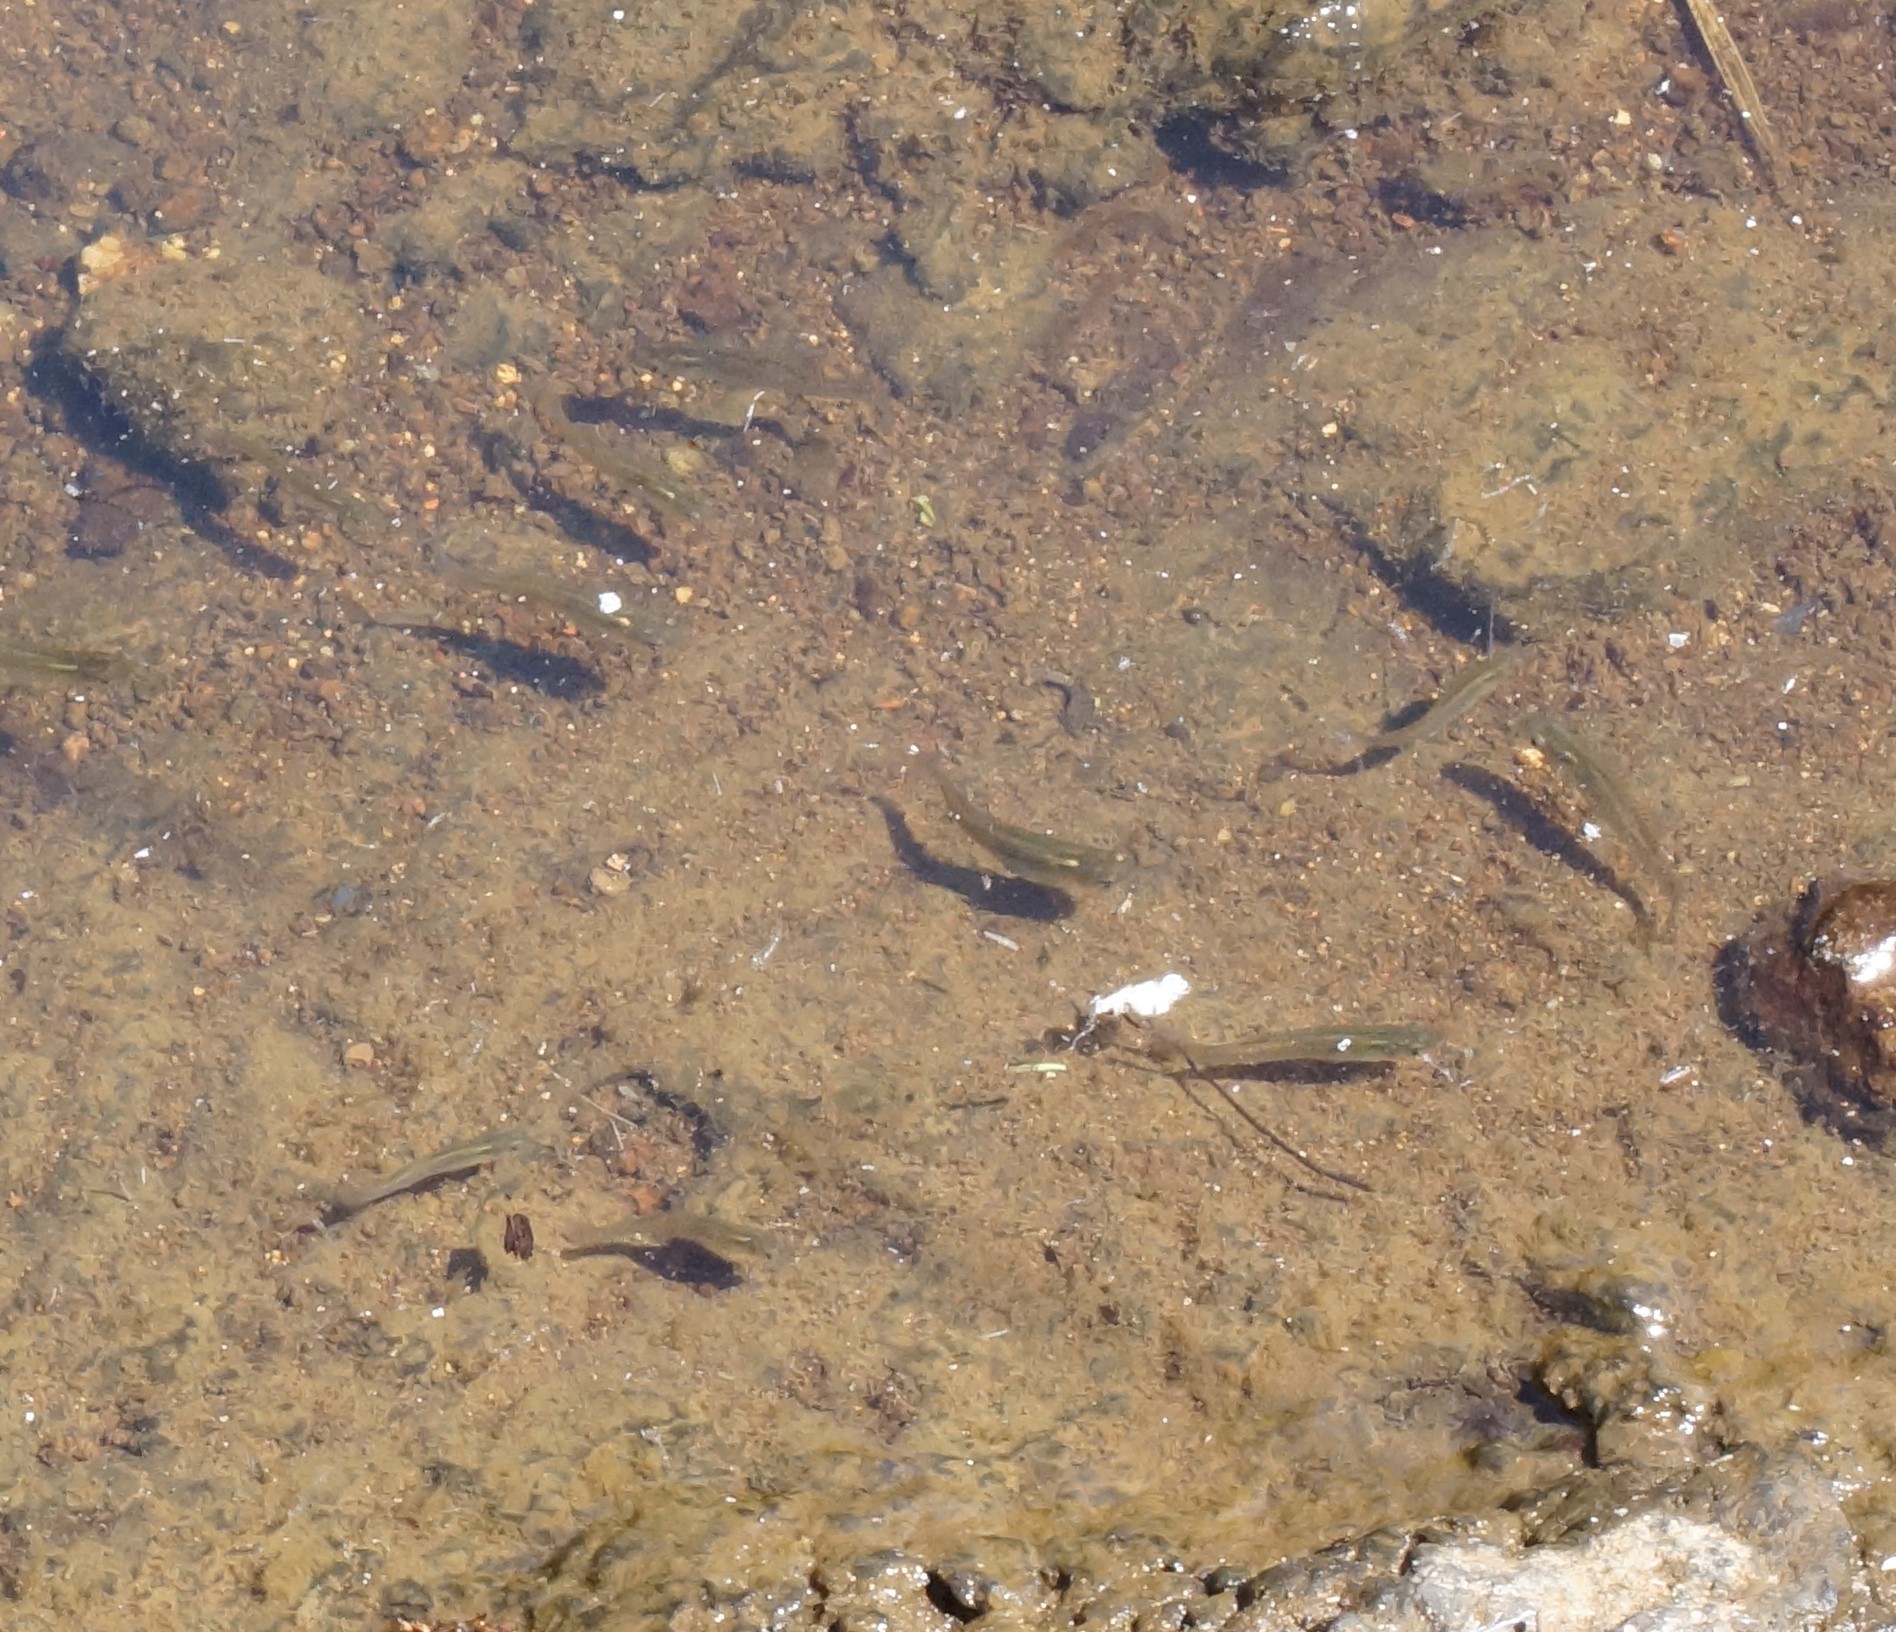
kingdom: Animalia
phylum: Chordata
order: Cyprinodontiformes
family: Poeciliidae
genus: Gambusia
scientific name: Gambusia holbrooki
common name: Eastern mosquitofish
